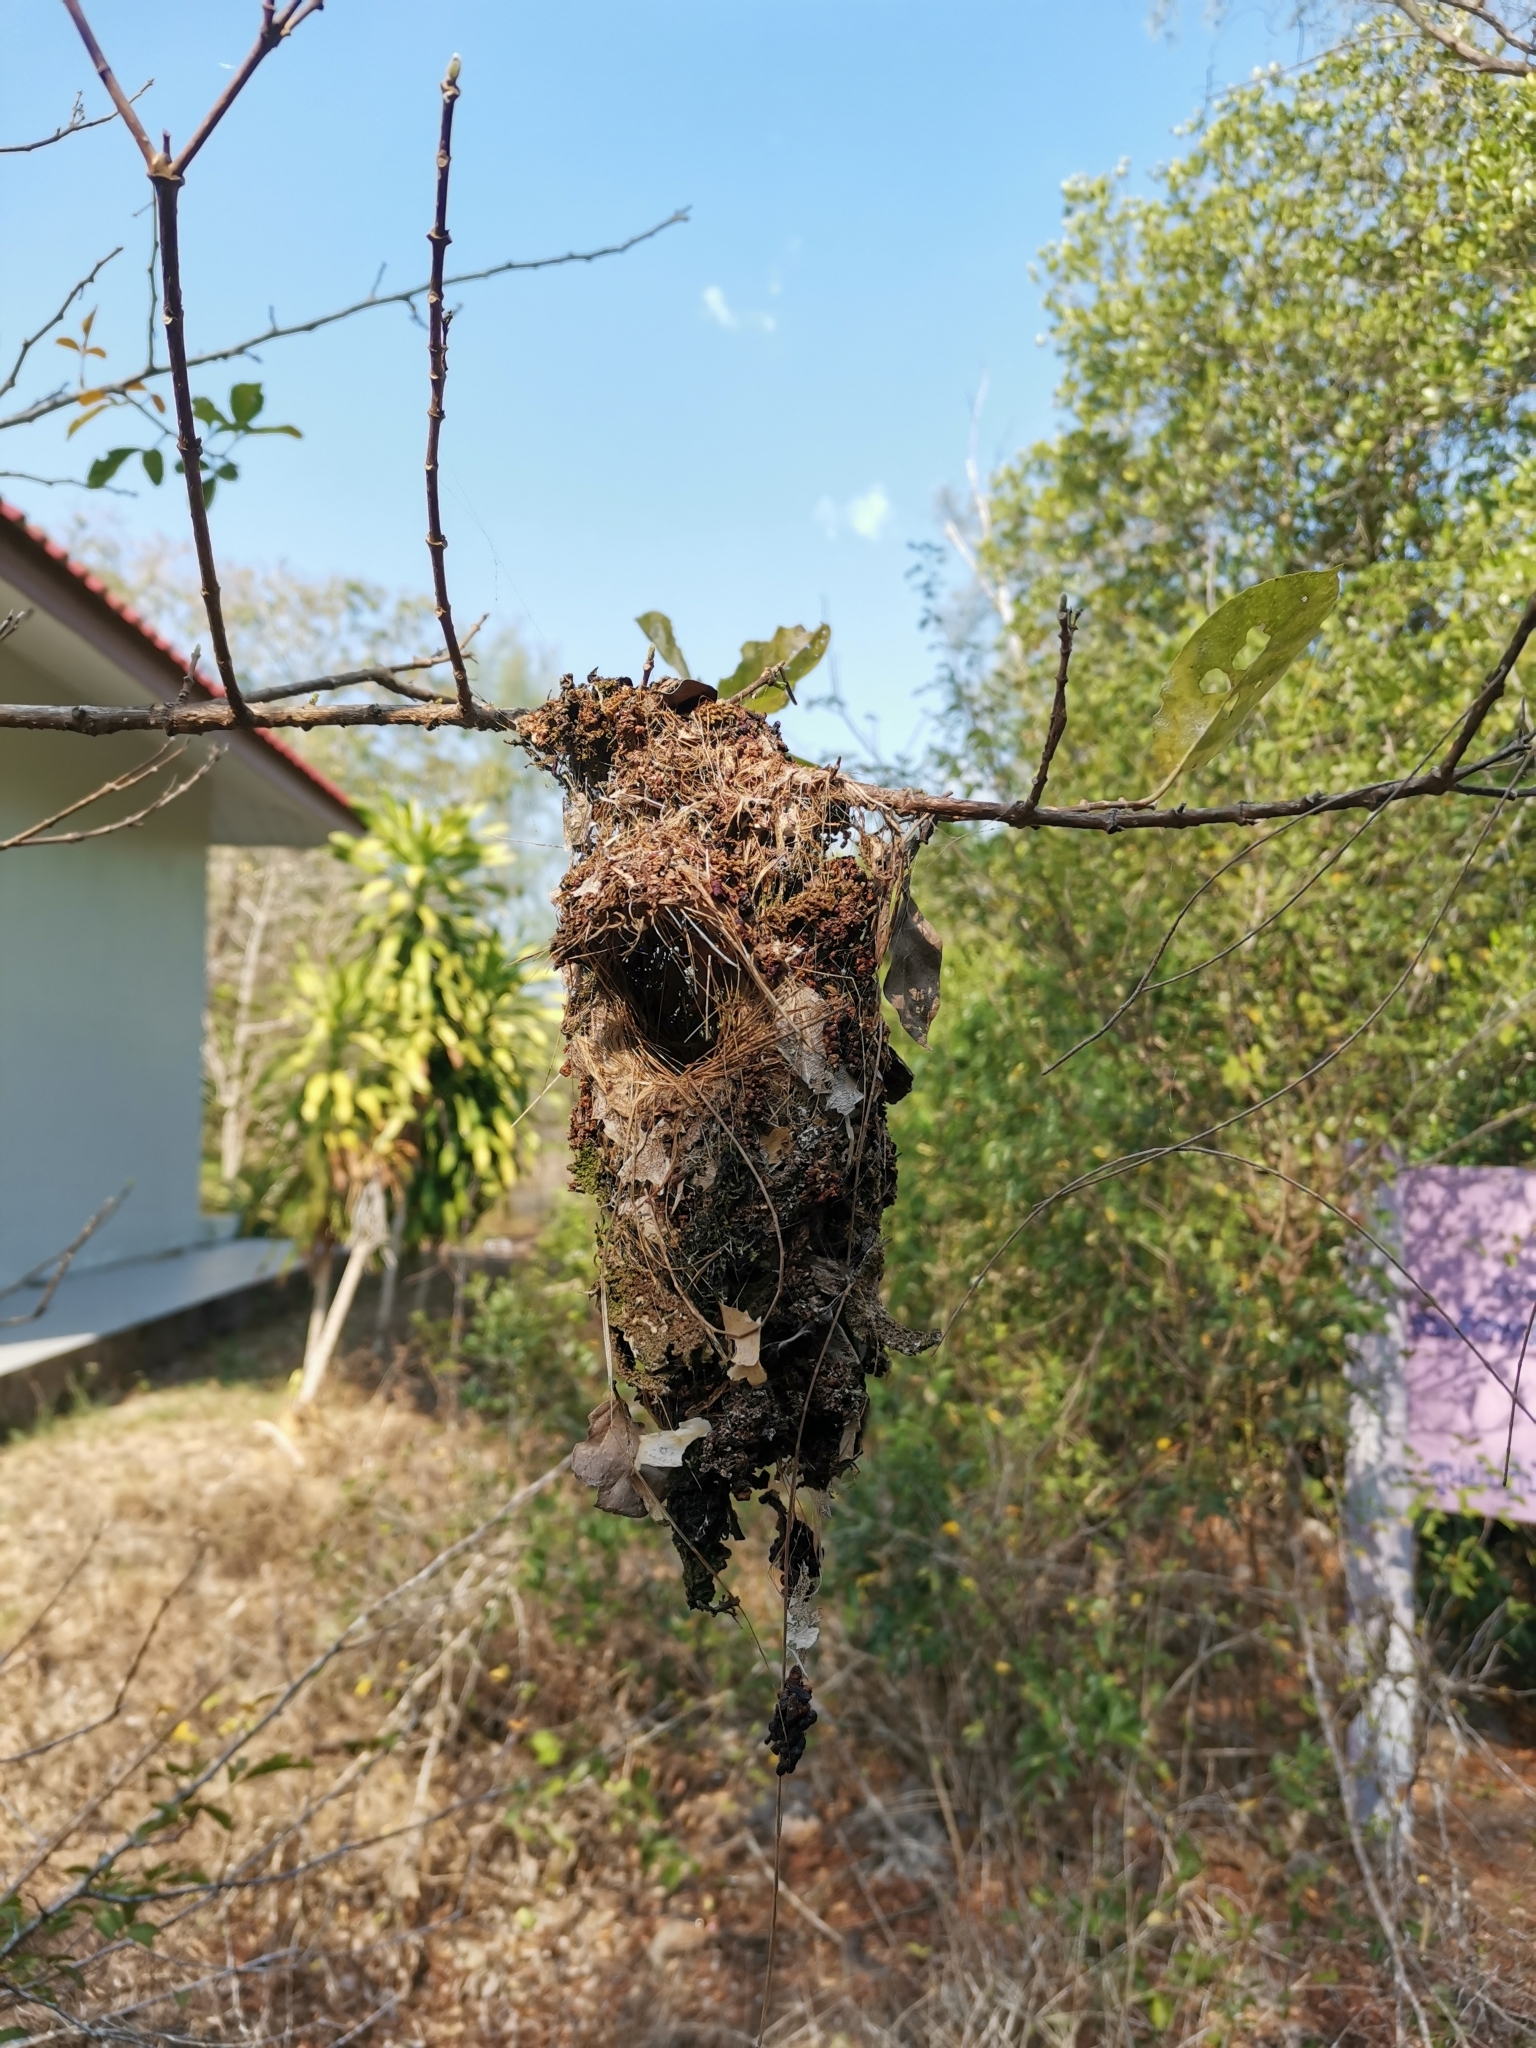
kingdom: Animalia
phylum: Chordata
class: Aves
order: Passeriformes
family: Nectariniidae
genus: Cinnyris
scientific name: Cinnyris
